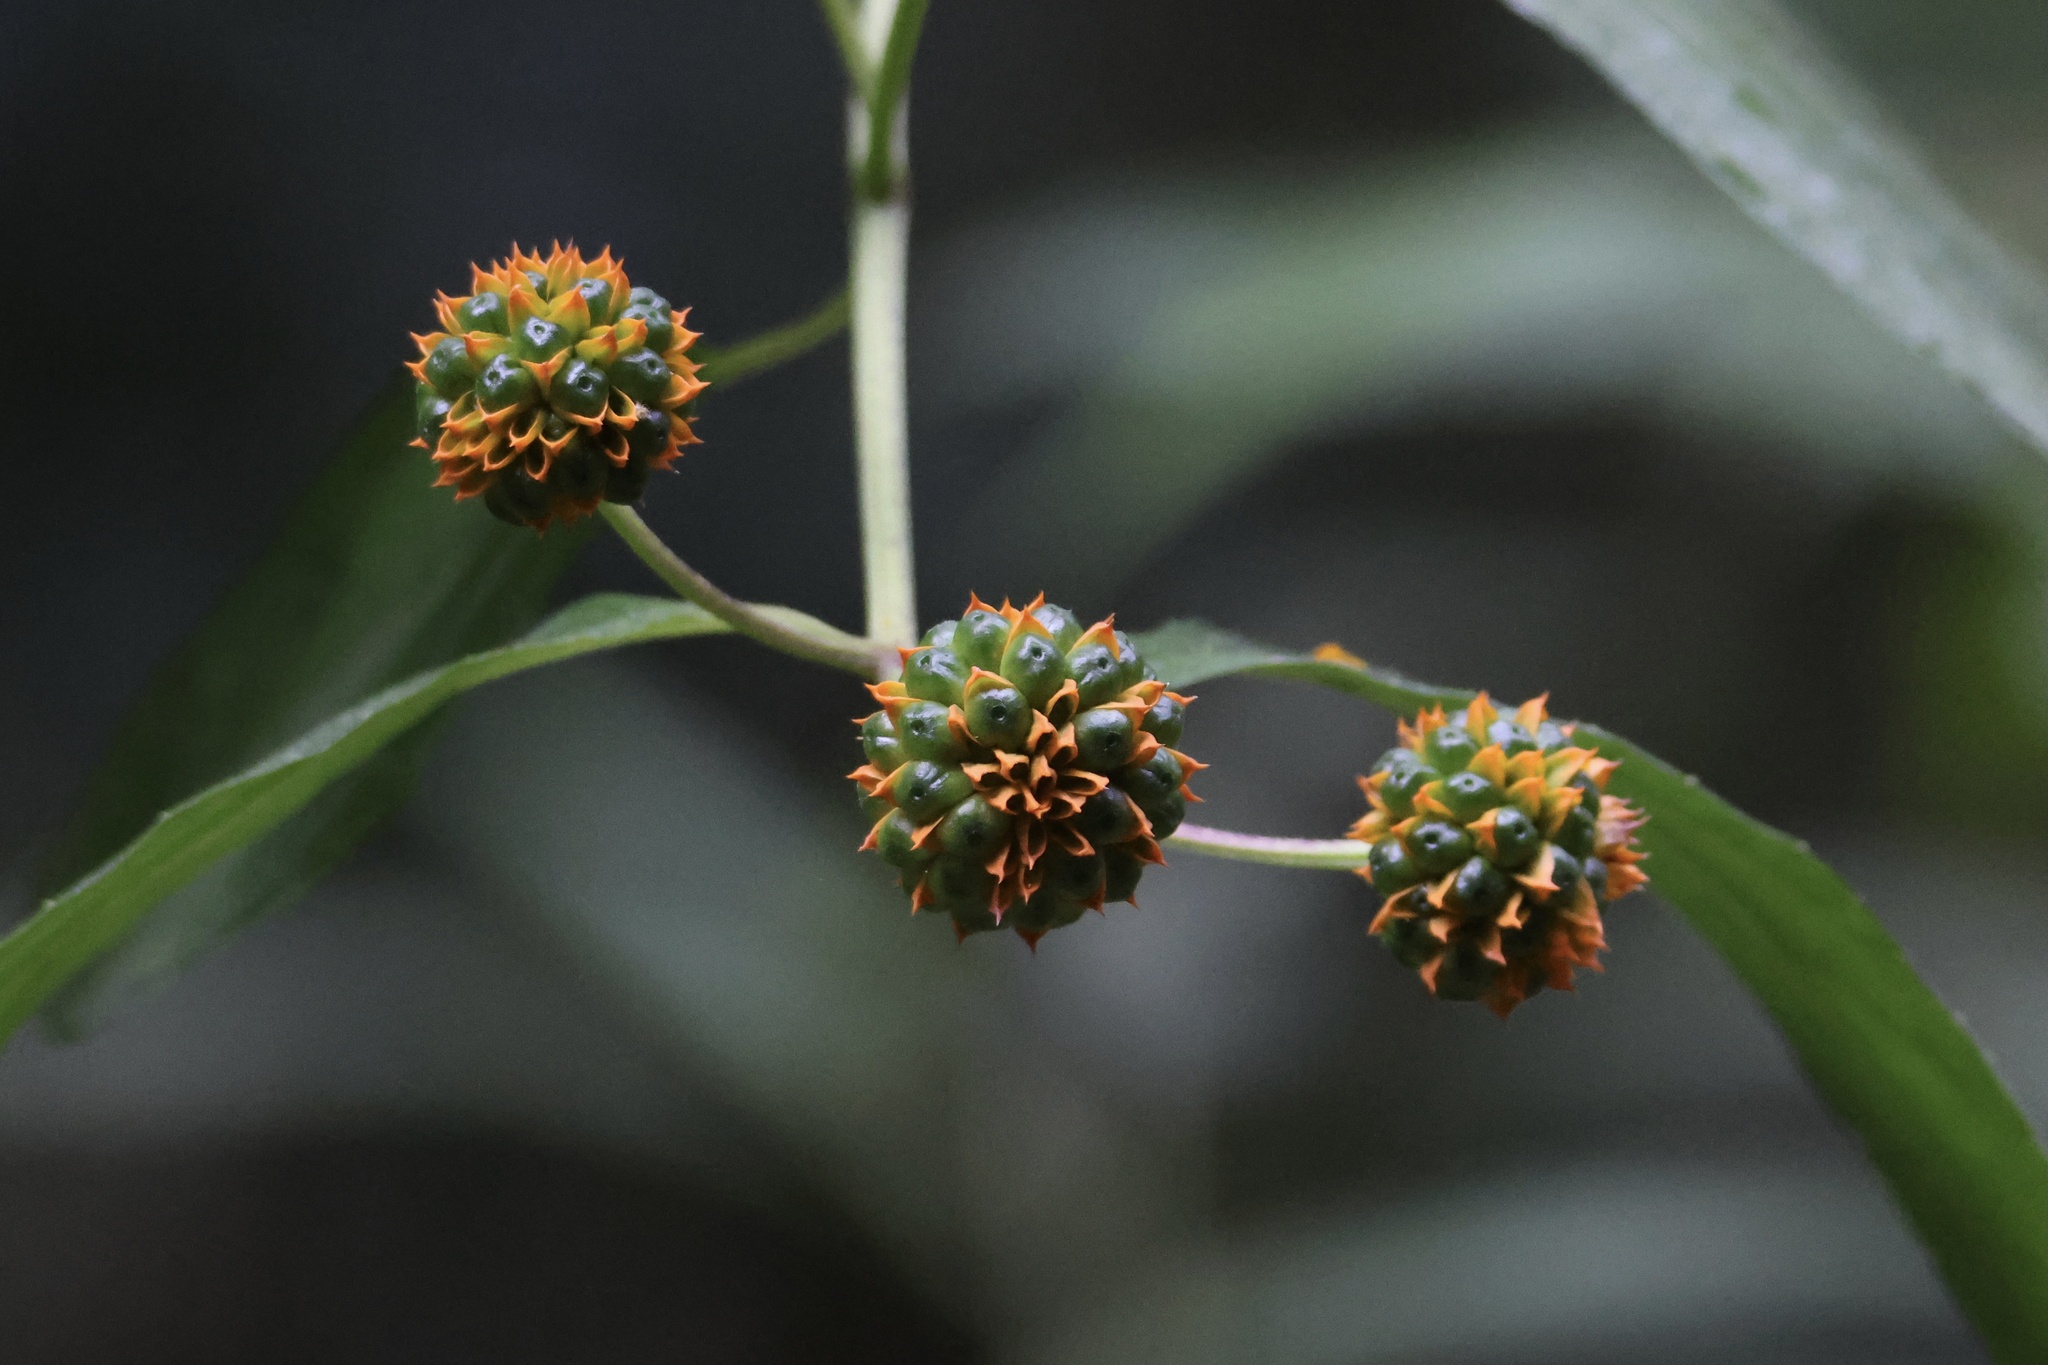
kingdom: Plantae
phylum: Tracheophyta
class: Magnoliopsida
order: Asterales
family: Asteraceae
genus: Tilesia
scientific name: Tilesia baccata
